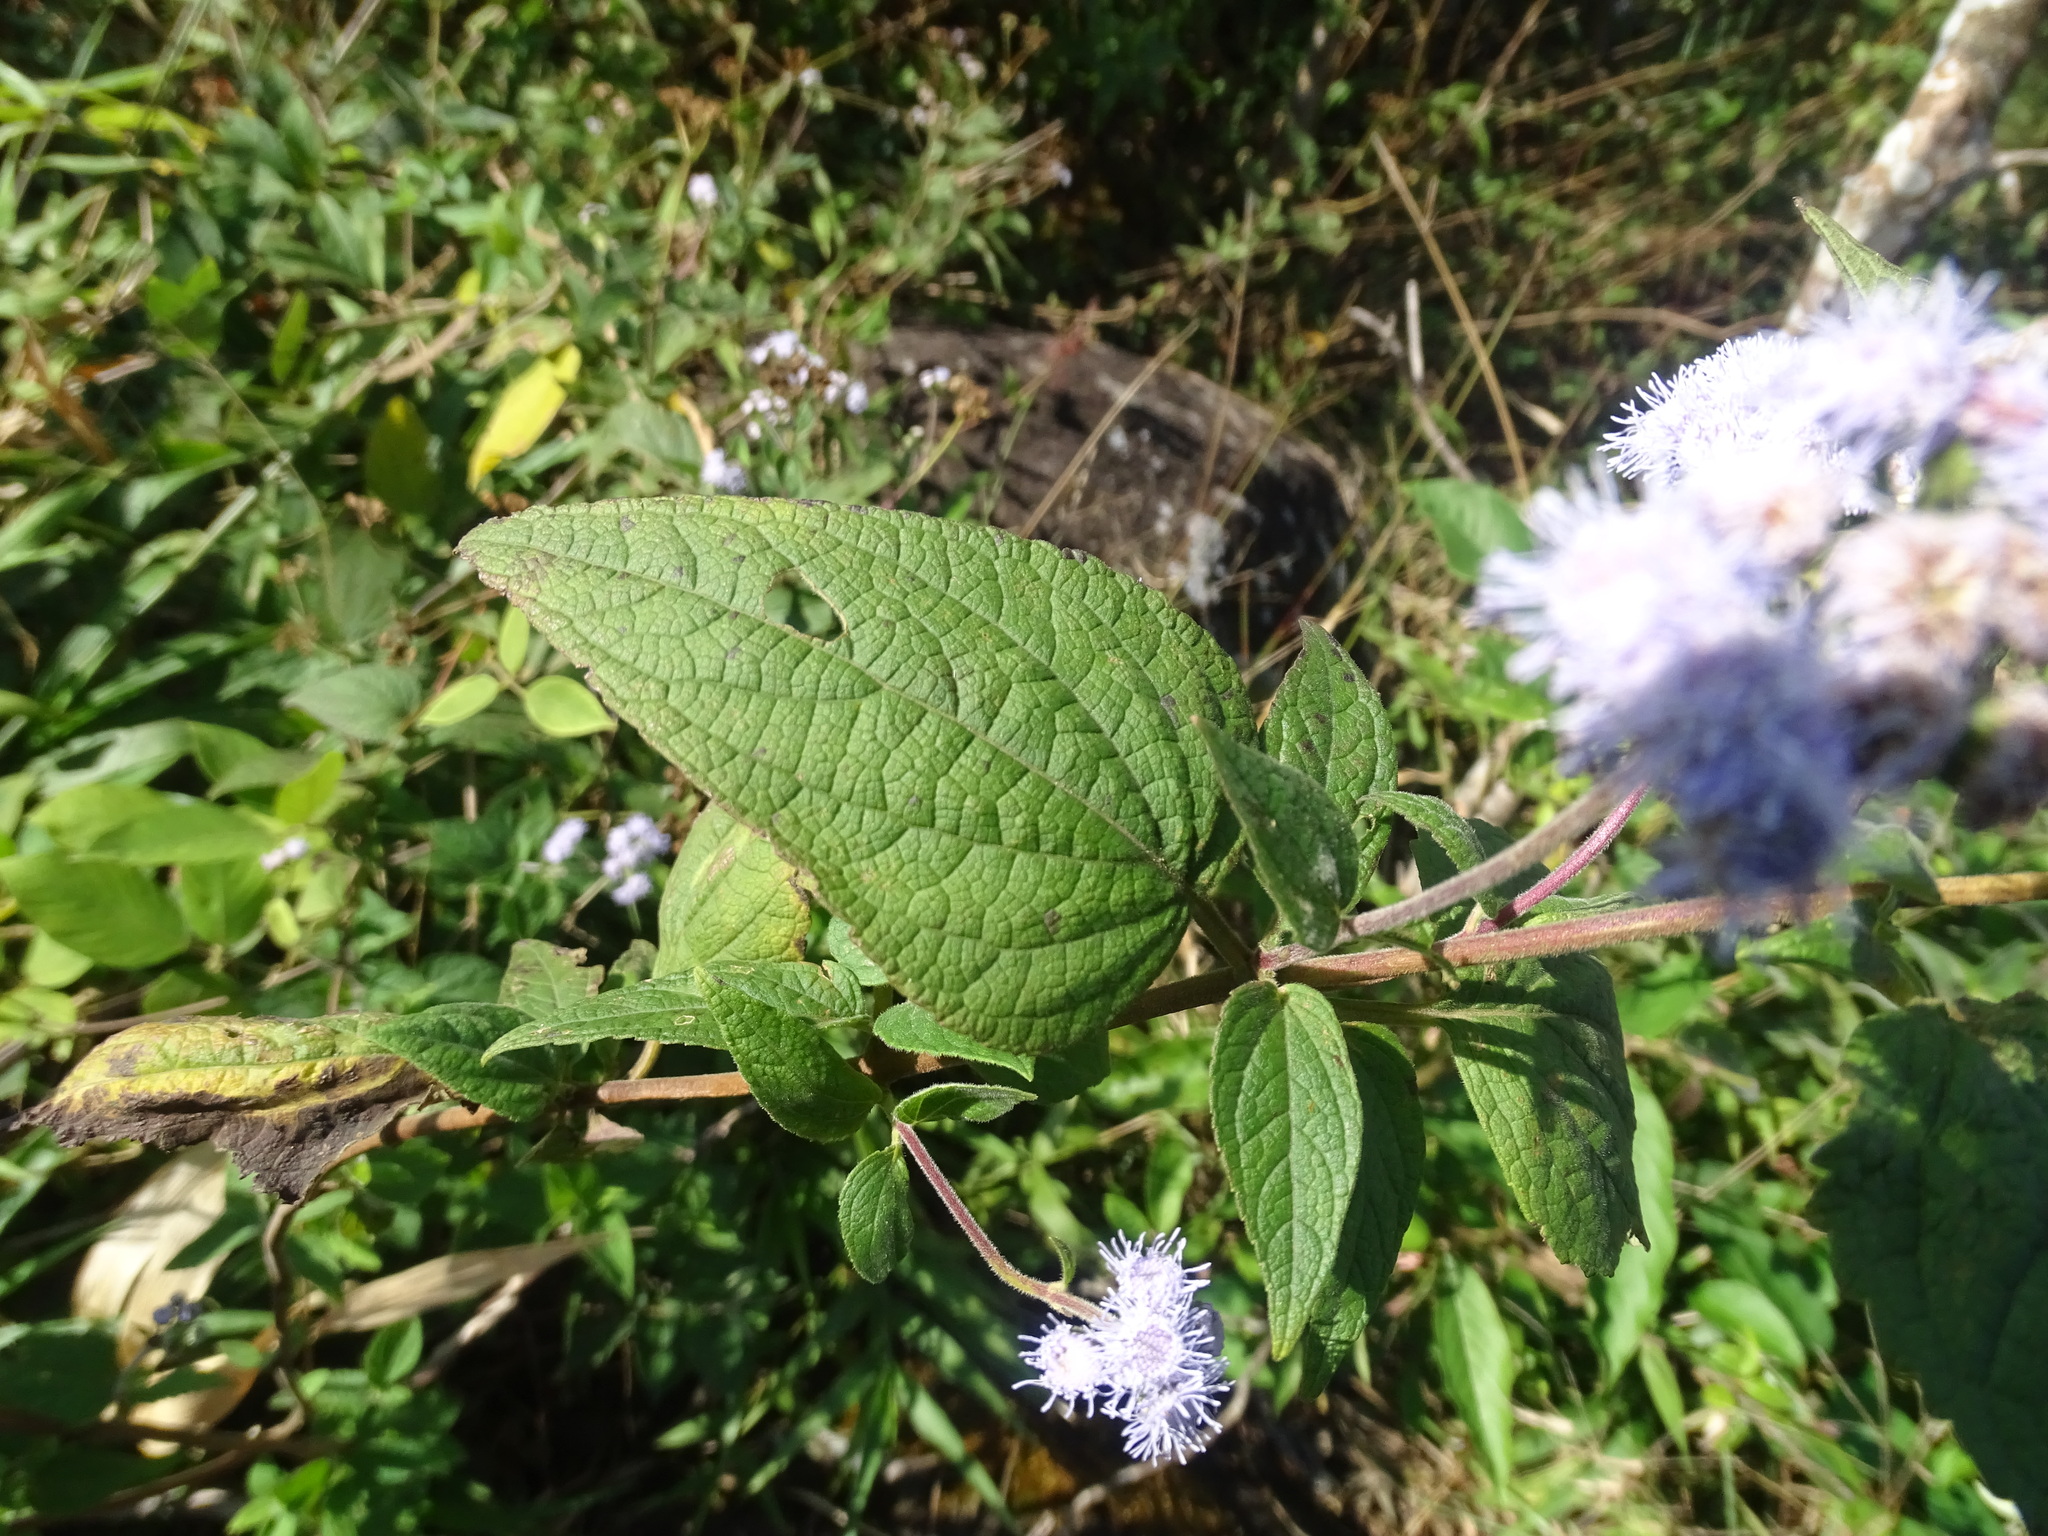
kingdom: Plantae
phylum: Tracheophyta
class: Magnoliopsida
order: Asterales
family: Asteraceae
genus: Ageratum
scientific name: Ageratum rugosum
